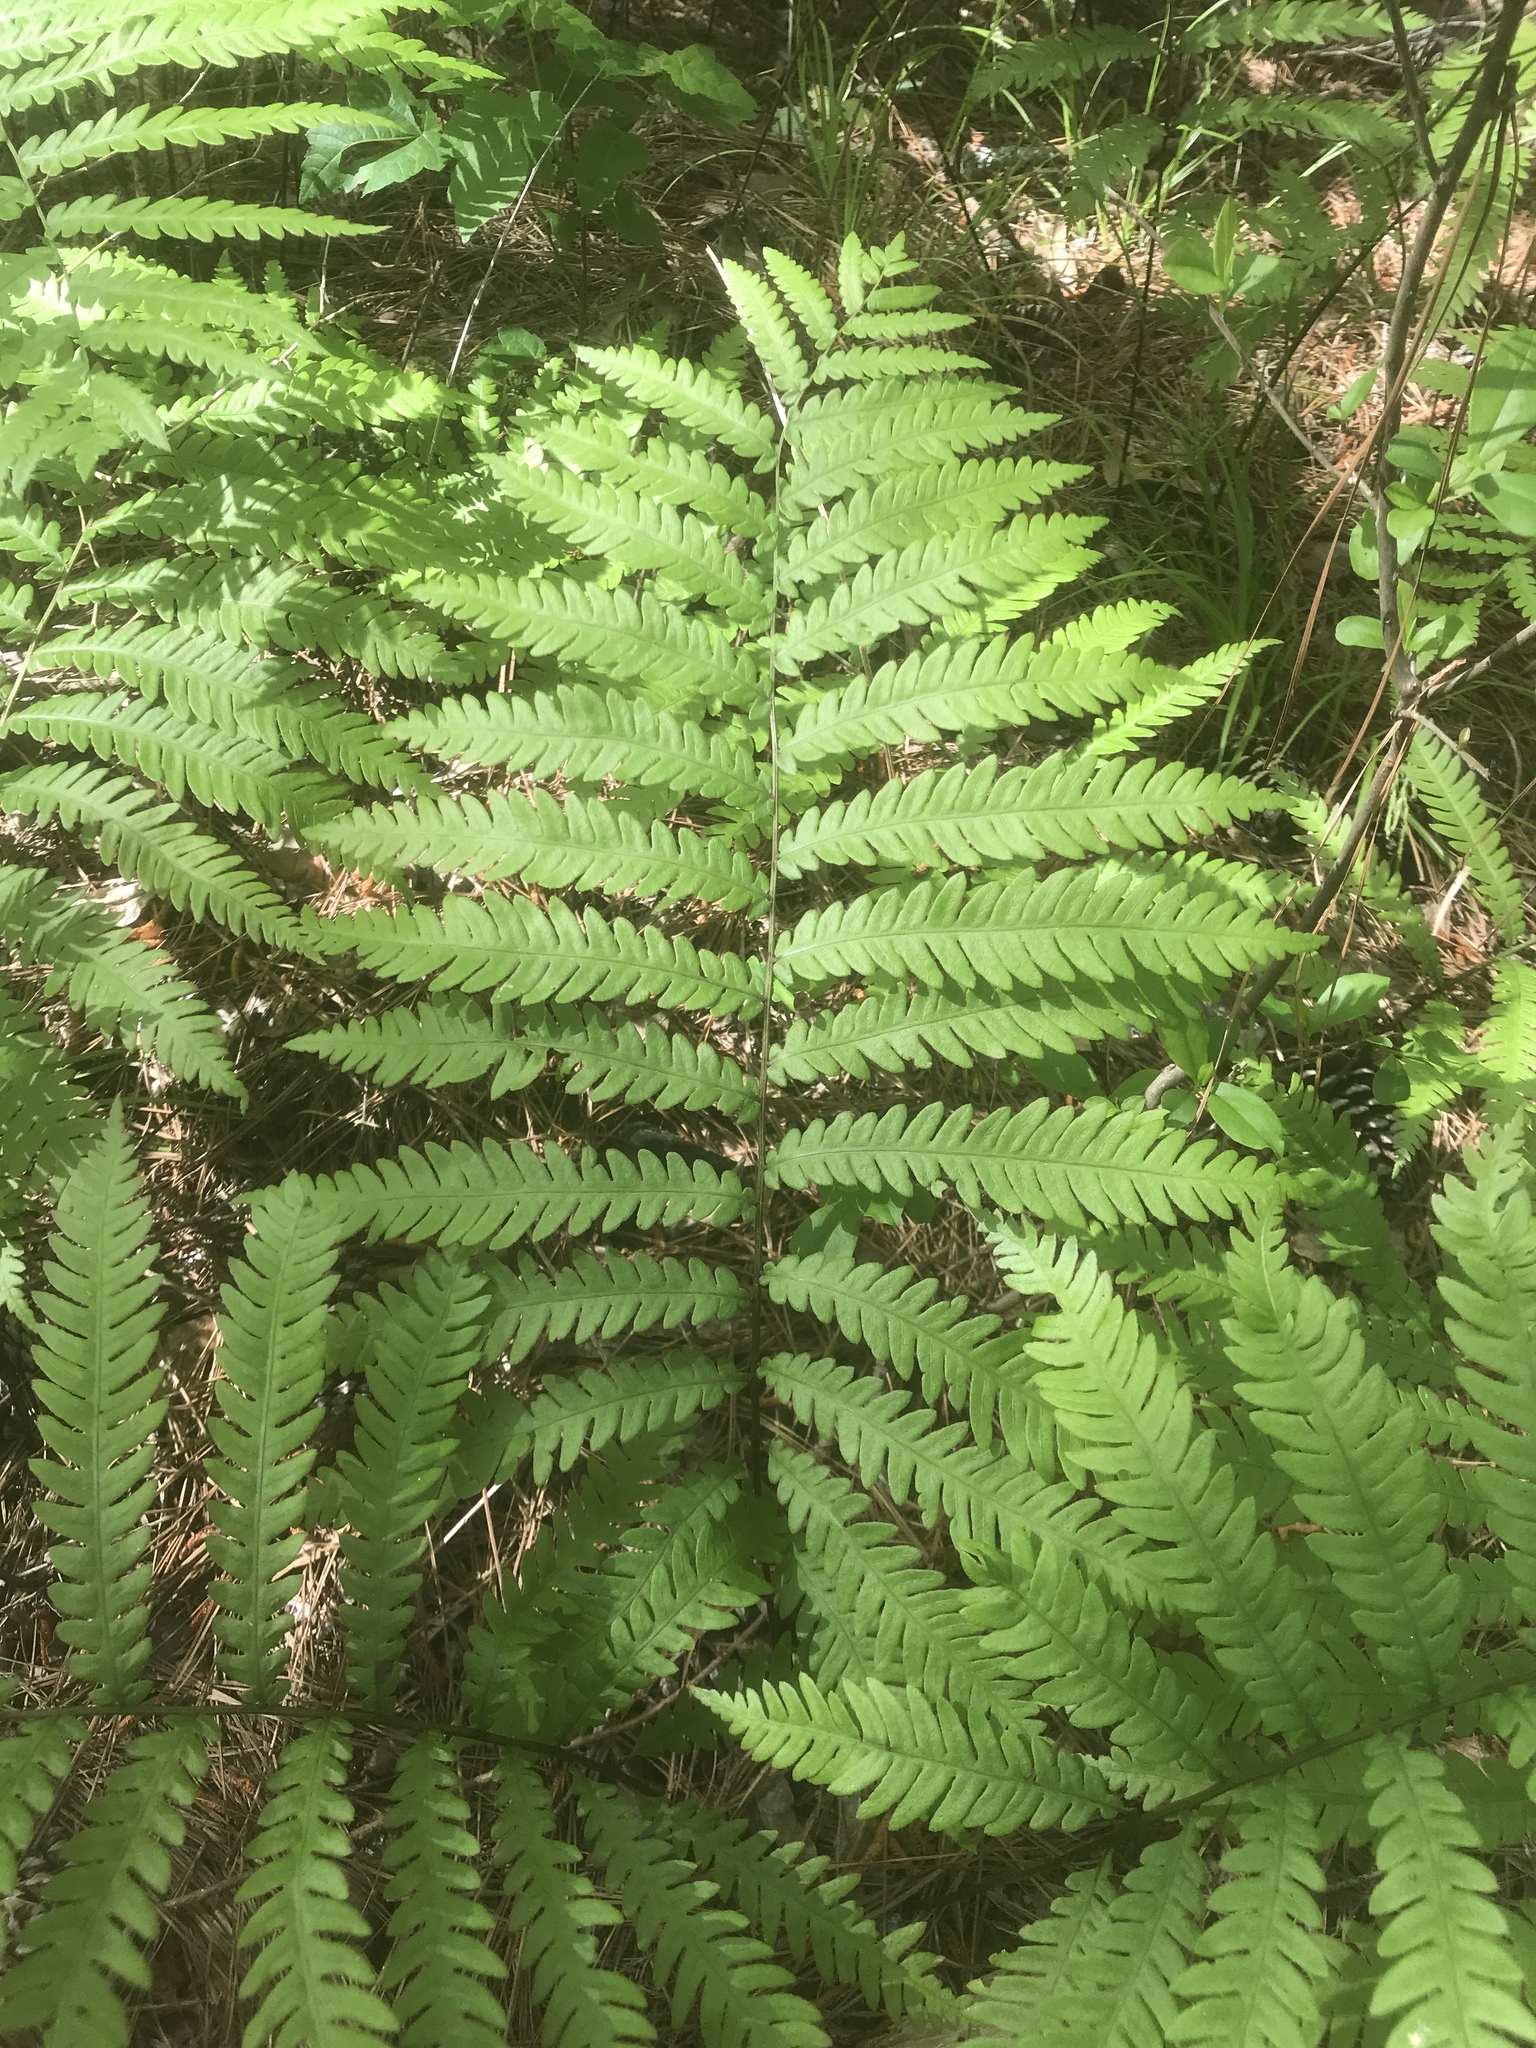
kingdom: Plantae
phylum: Tracheophyta
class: Polypodiopsida
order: Polypodiales
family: Blechnaceae
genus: Anchistea
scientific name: Anchistea virginica
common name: Virginia chain fern
